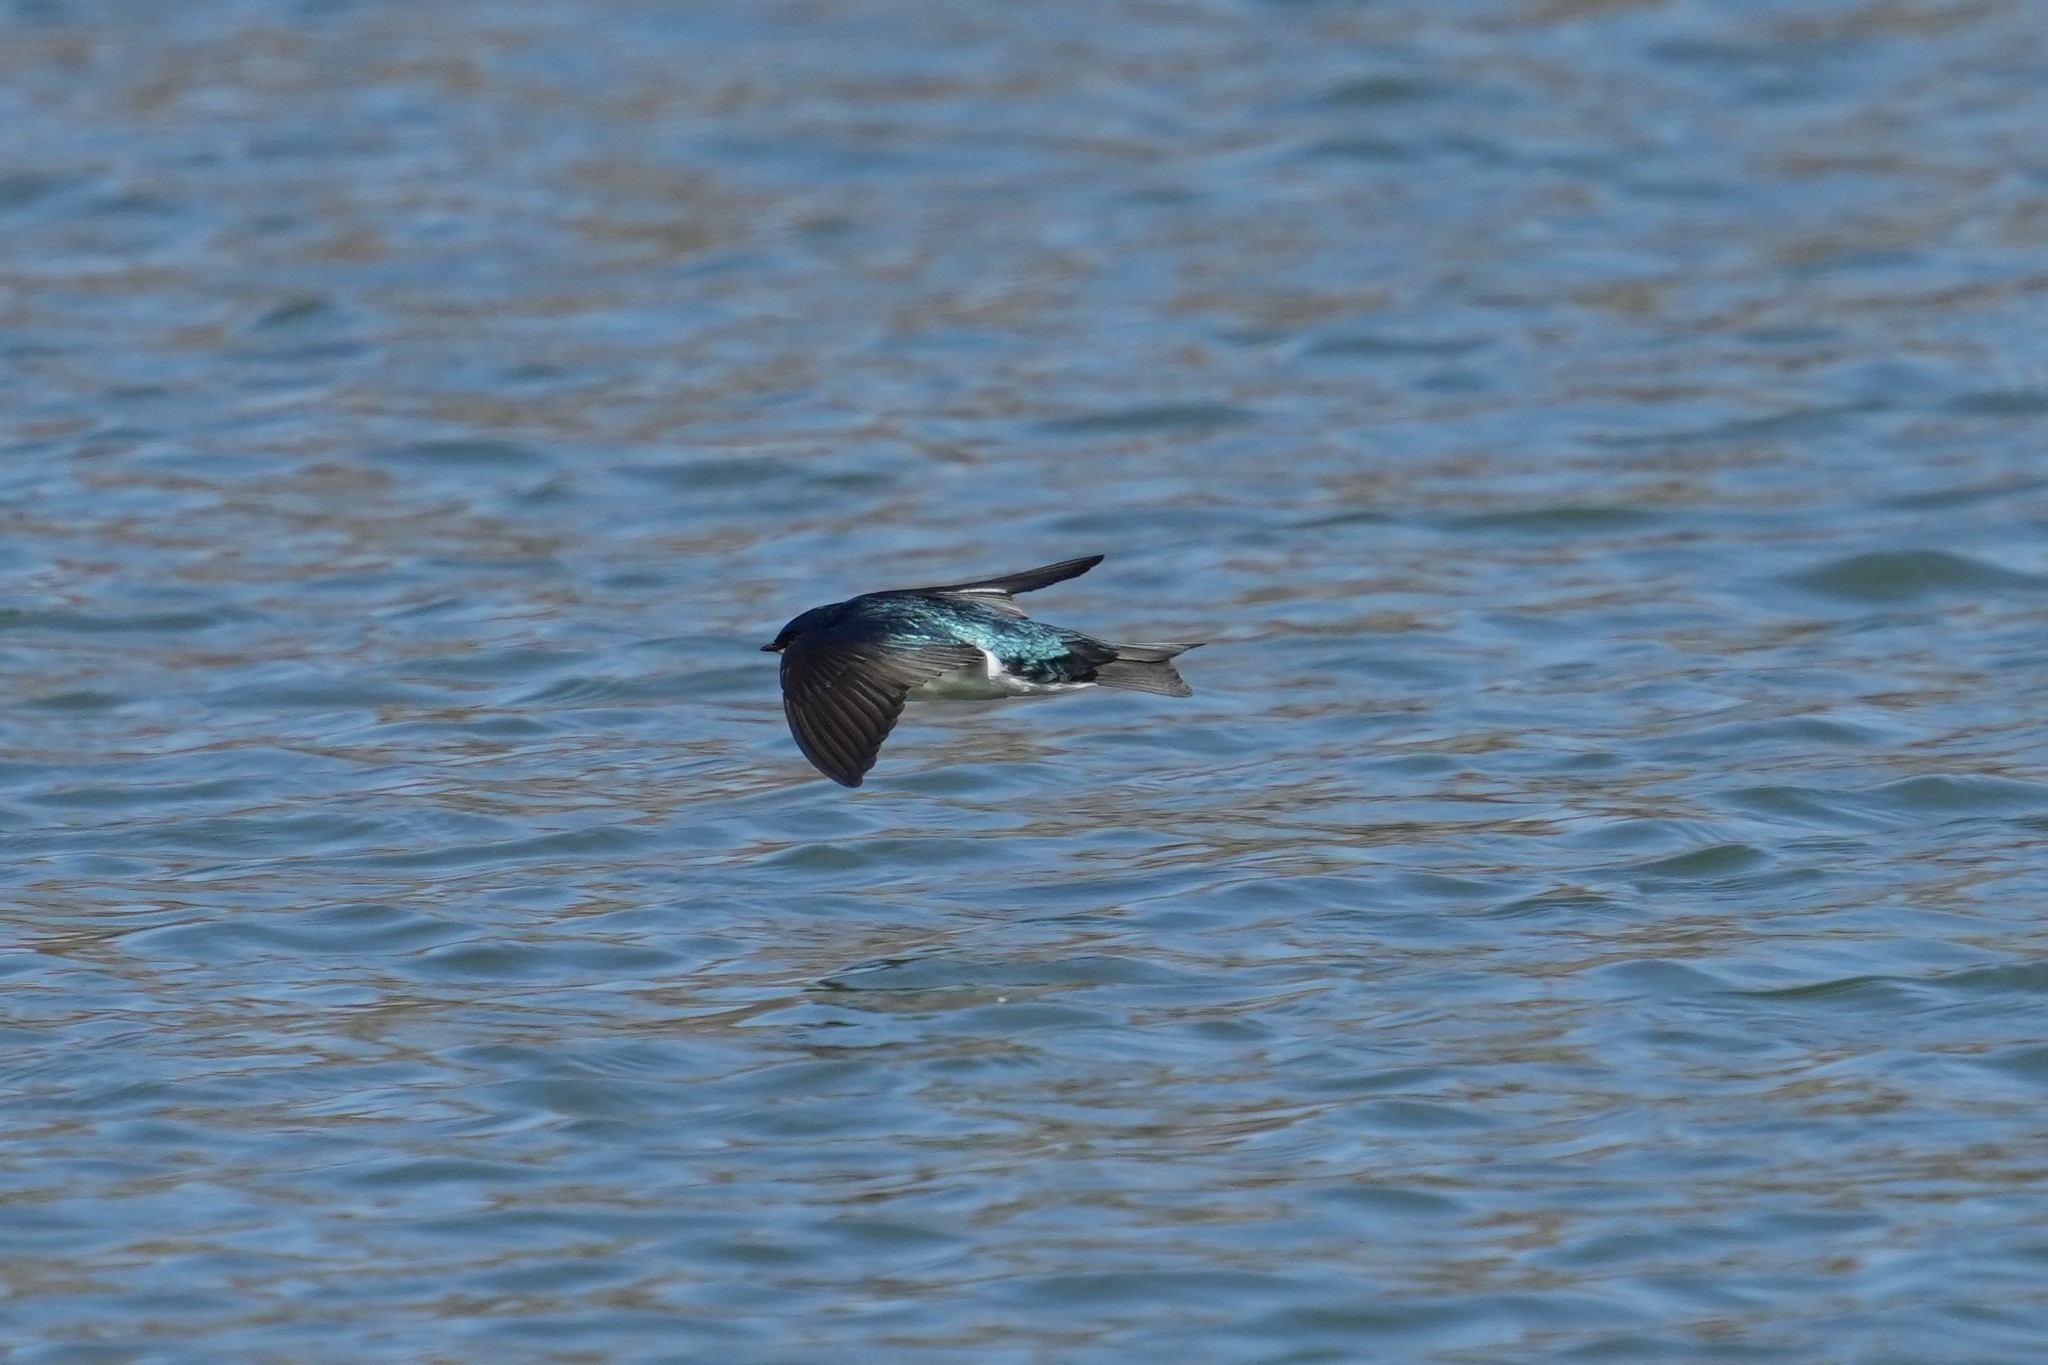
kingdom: Animalia
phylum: Chordata
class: Aves
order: Passeriformes
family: Hirundinidae
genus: Tachycineta
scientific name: Tachycineta bicolor
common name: Tree swallow
